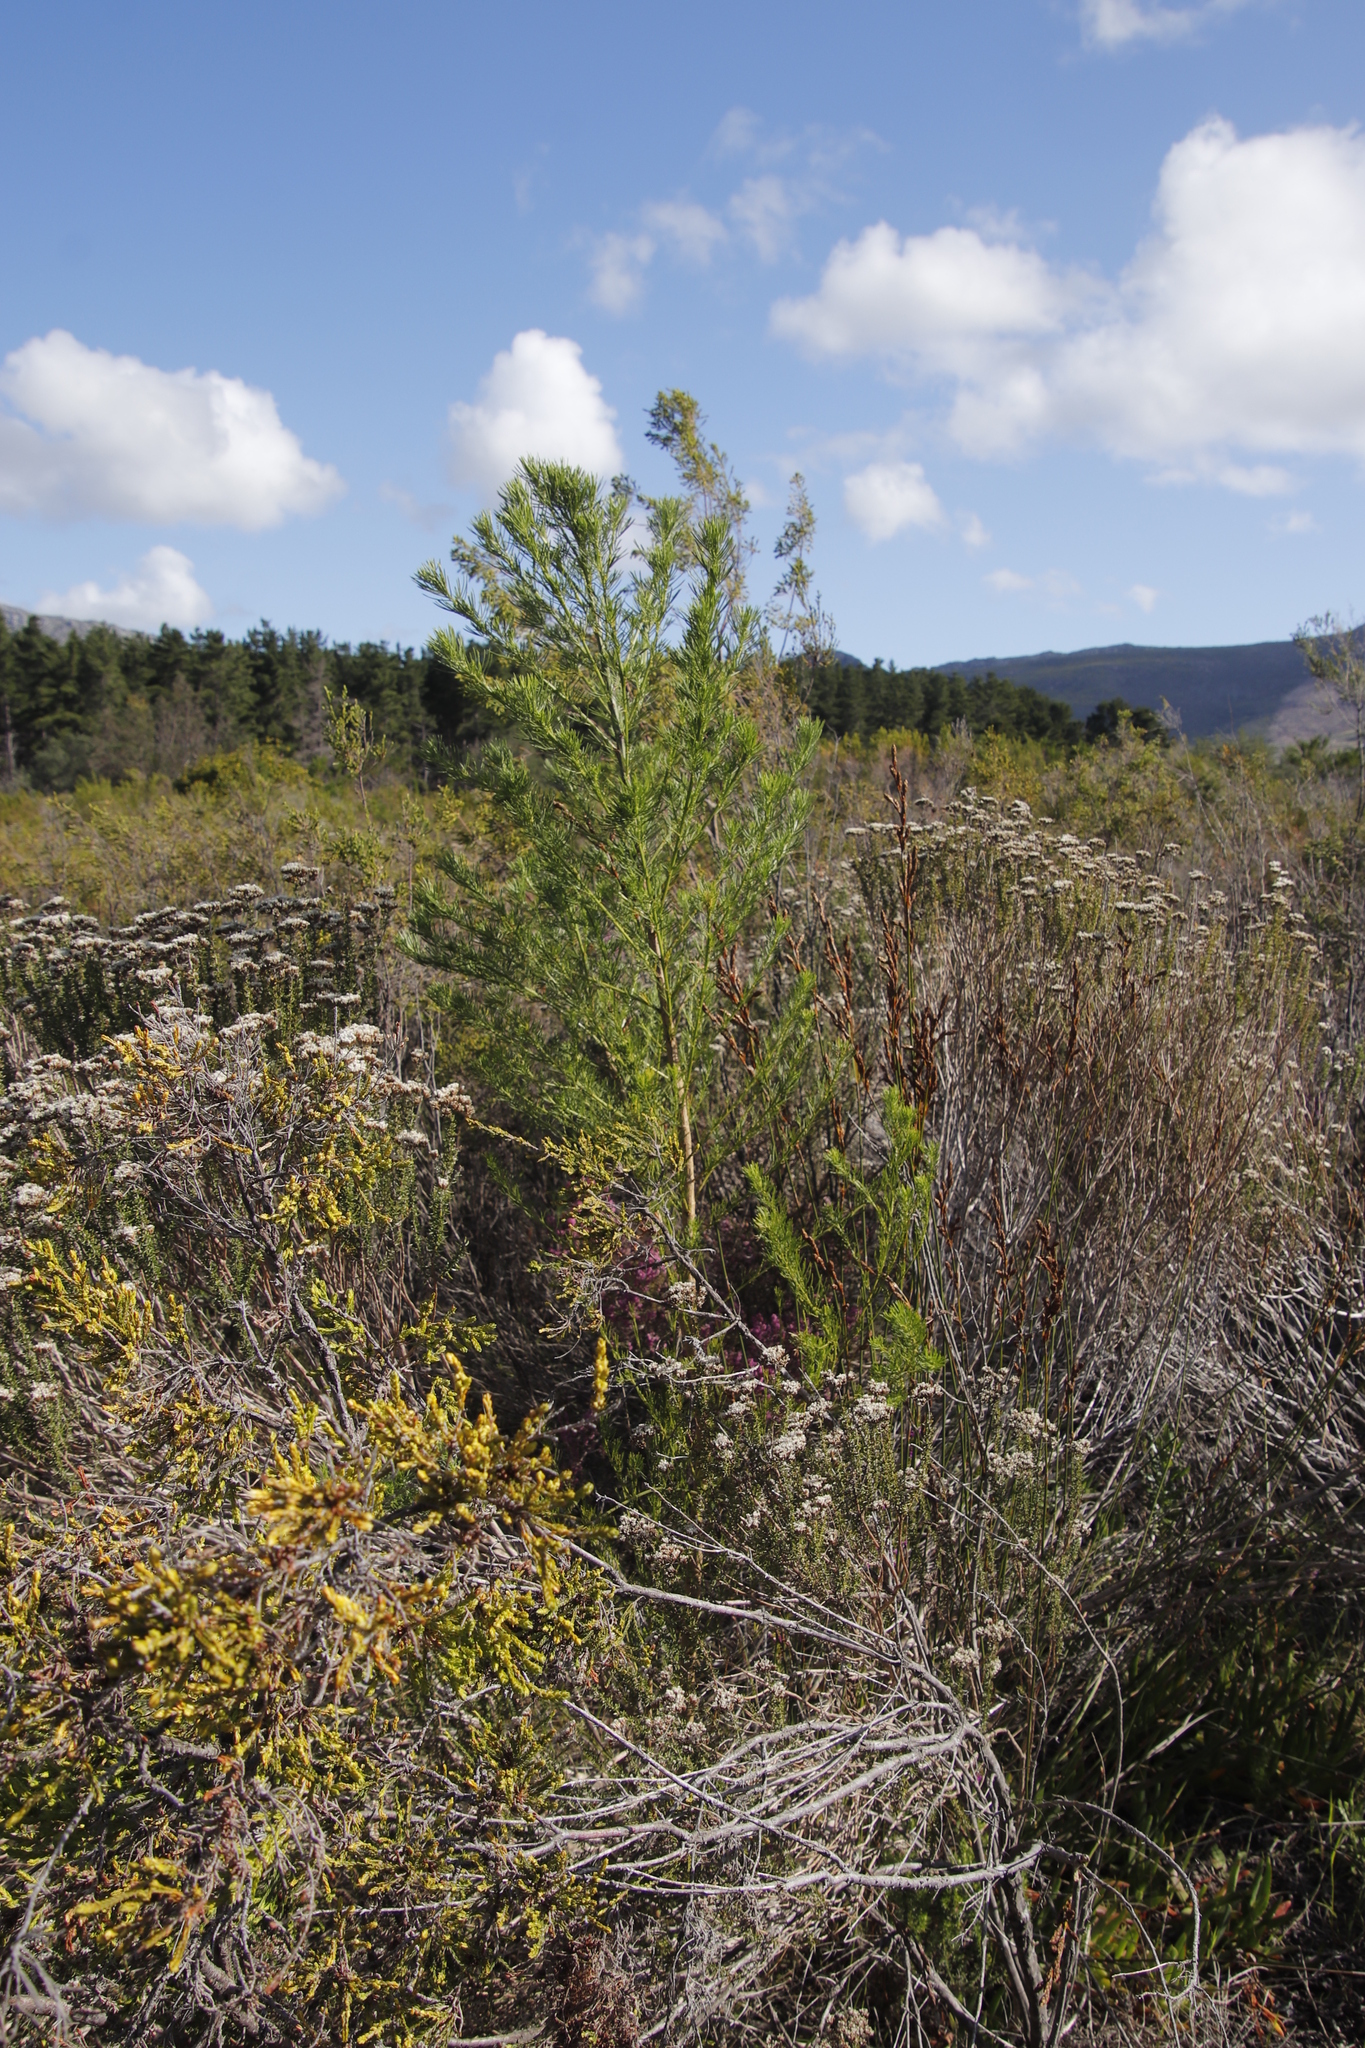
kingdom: Plantae
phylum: Tracheophyta
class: Magnoliopsida
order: Fabales
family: Fabaceae
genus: Psoralea
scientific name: Psoralea pinnata
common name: African scurfpea
